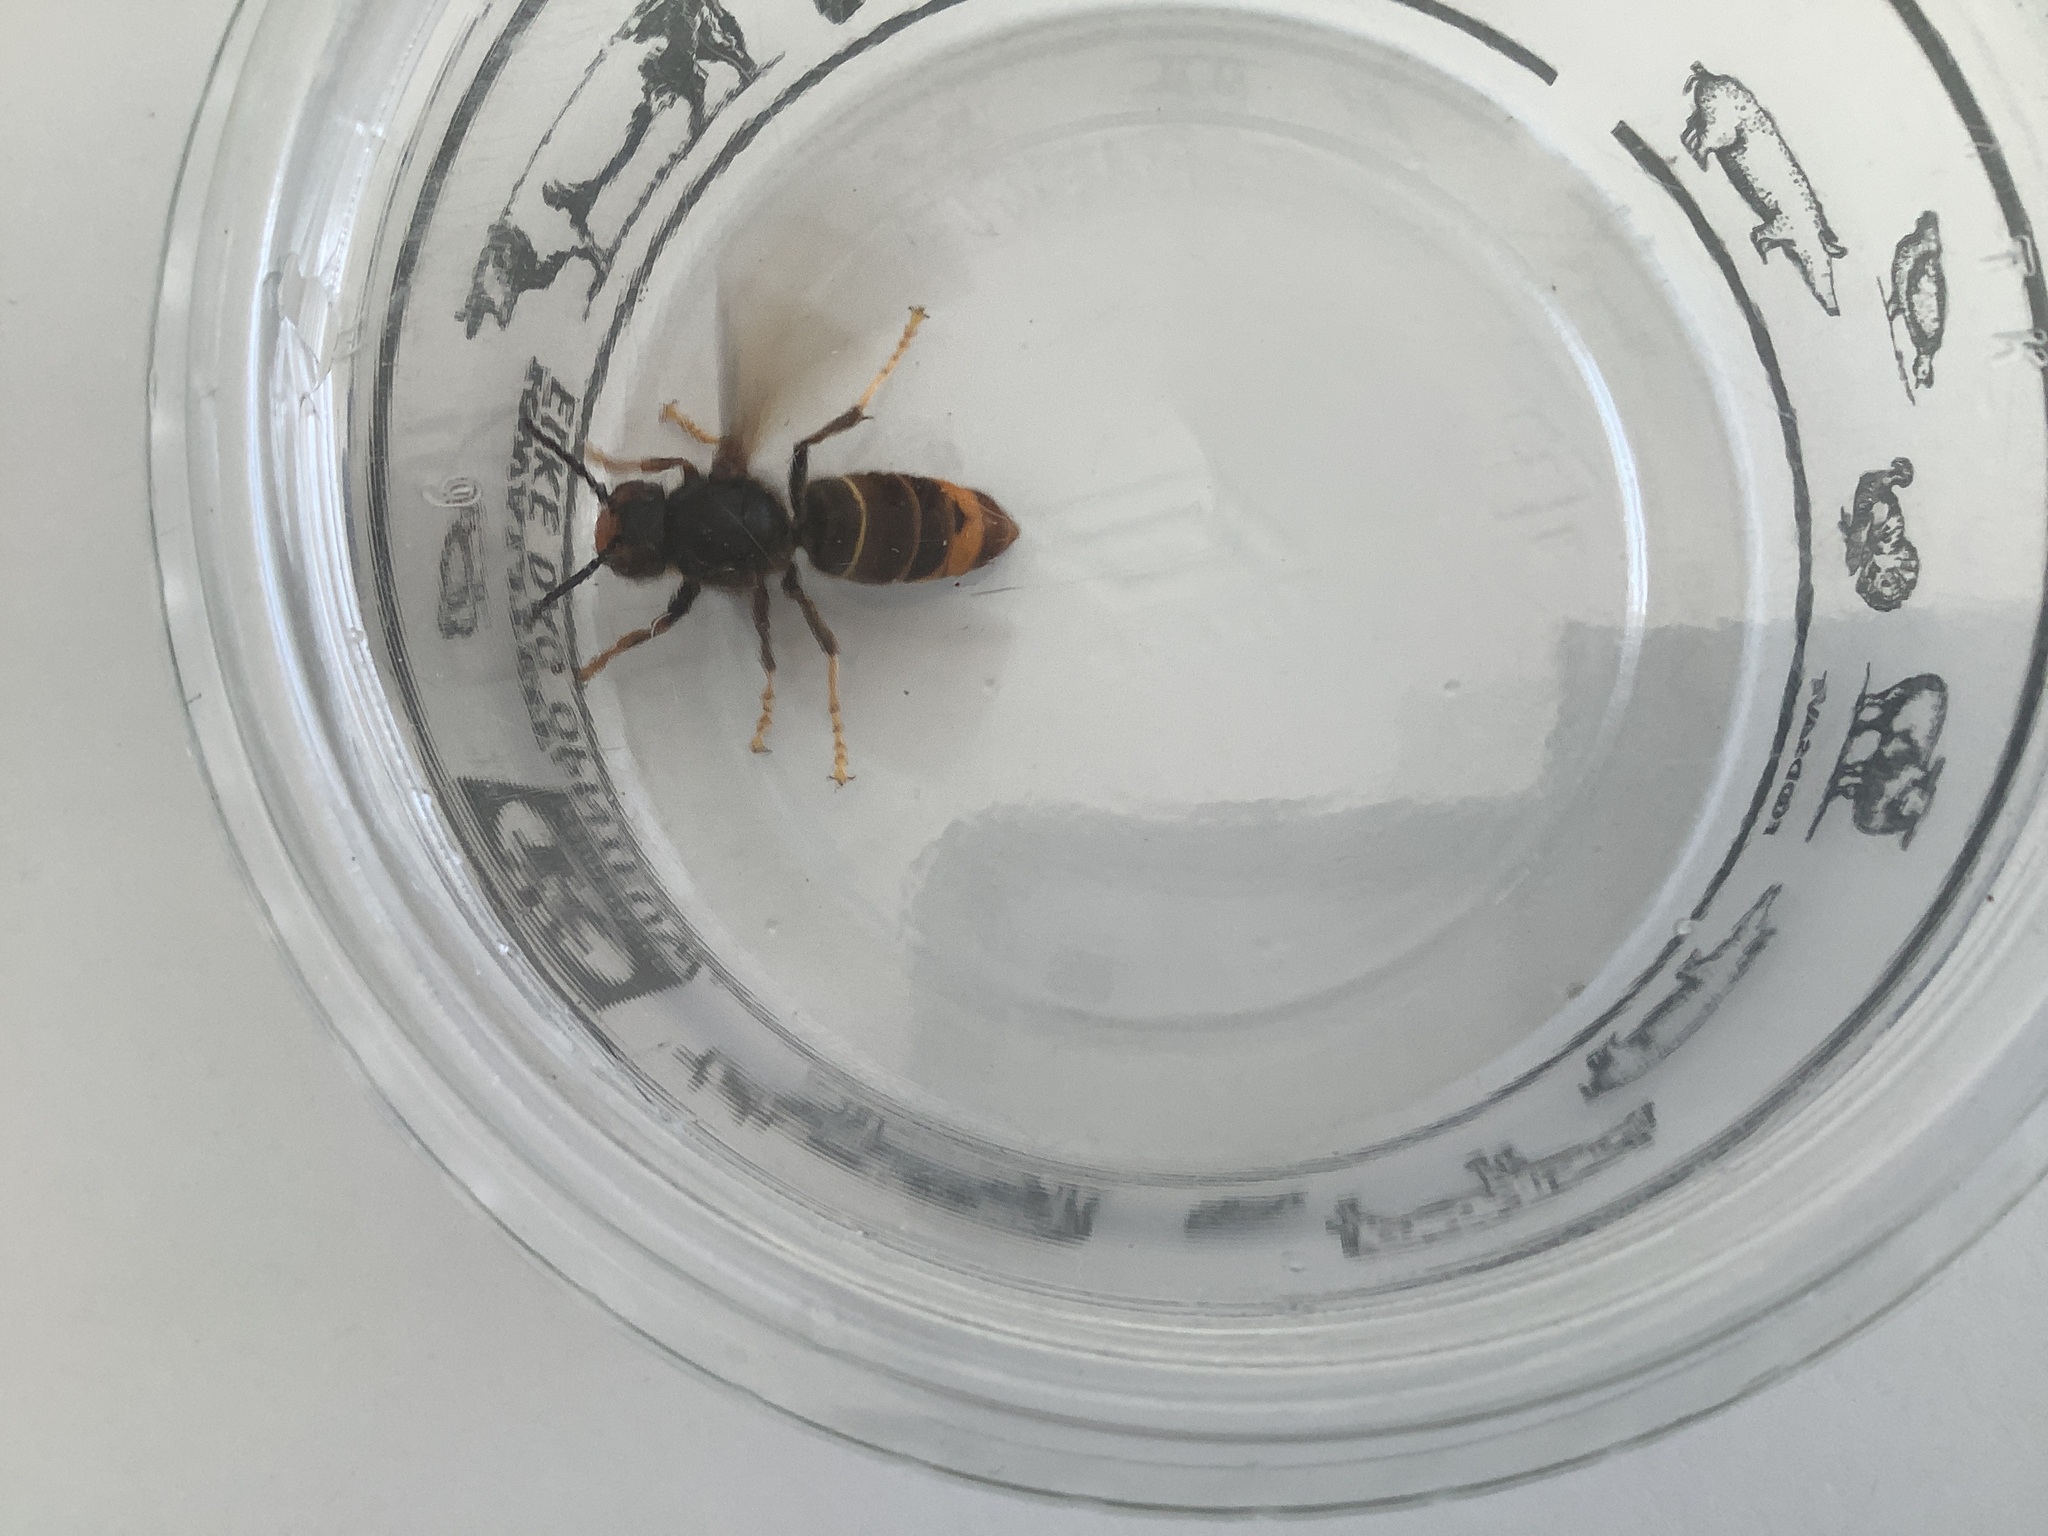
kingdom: Animalia
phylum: Arthropoda
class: Insecta
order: Hymenoptera
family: Vespidae
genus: Vespa
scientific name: Vespa velutina
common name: Asian hornet
